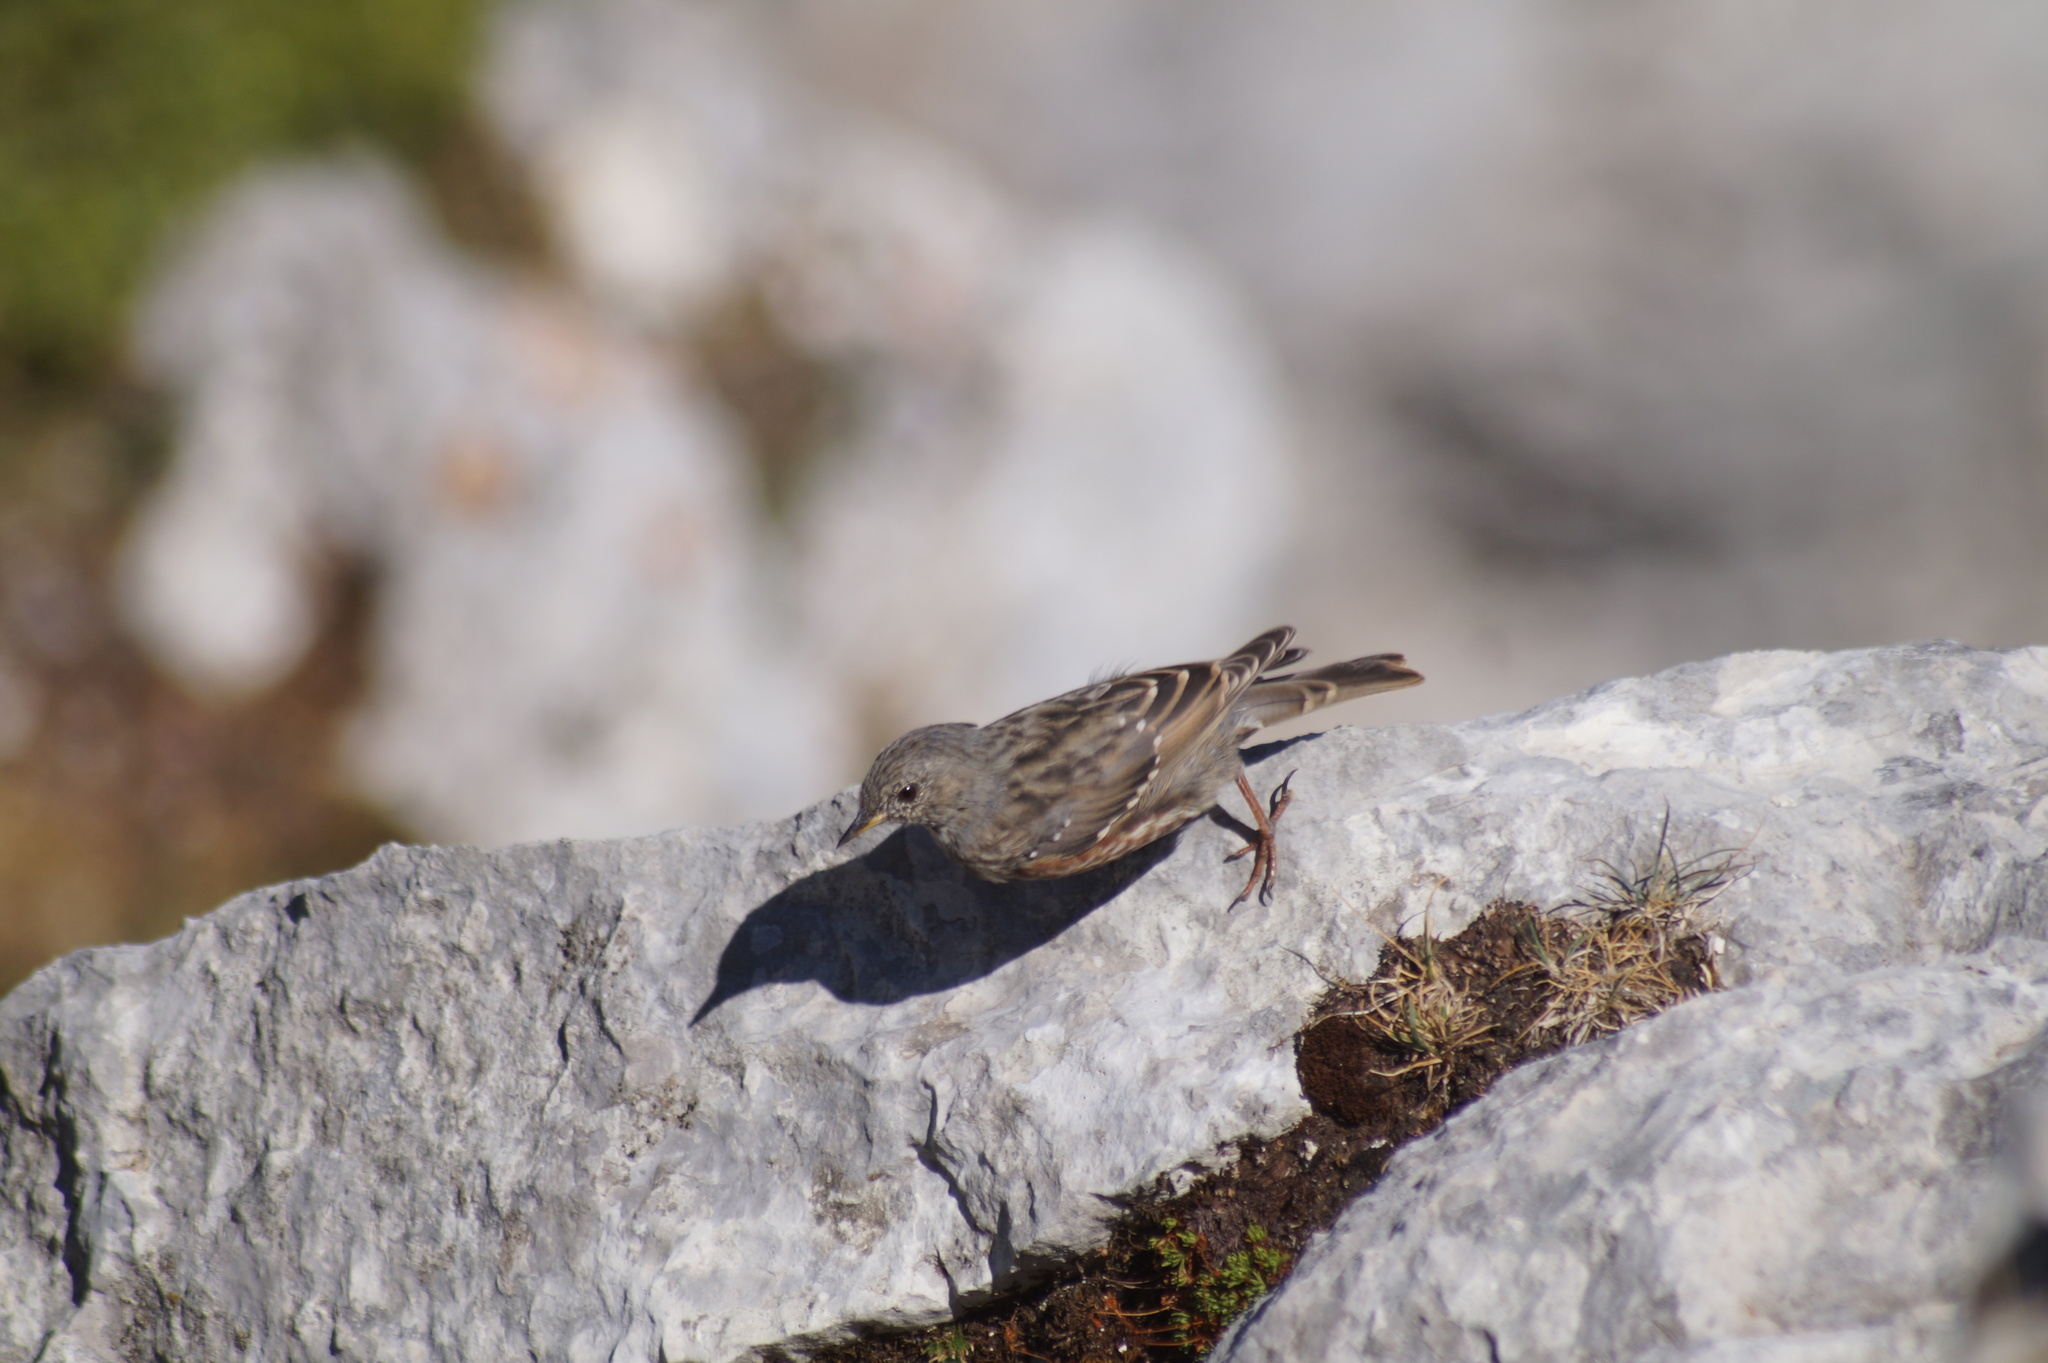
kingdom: Animalia
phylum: Chordata
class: Aves
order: Passeriformes
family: Prunellidae
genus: Prunella
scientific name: Prunella collaris
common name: Alpine accentor
